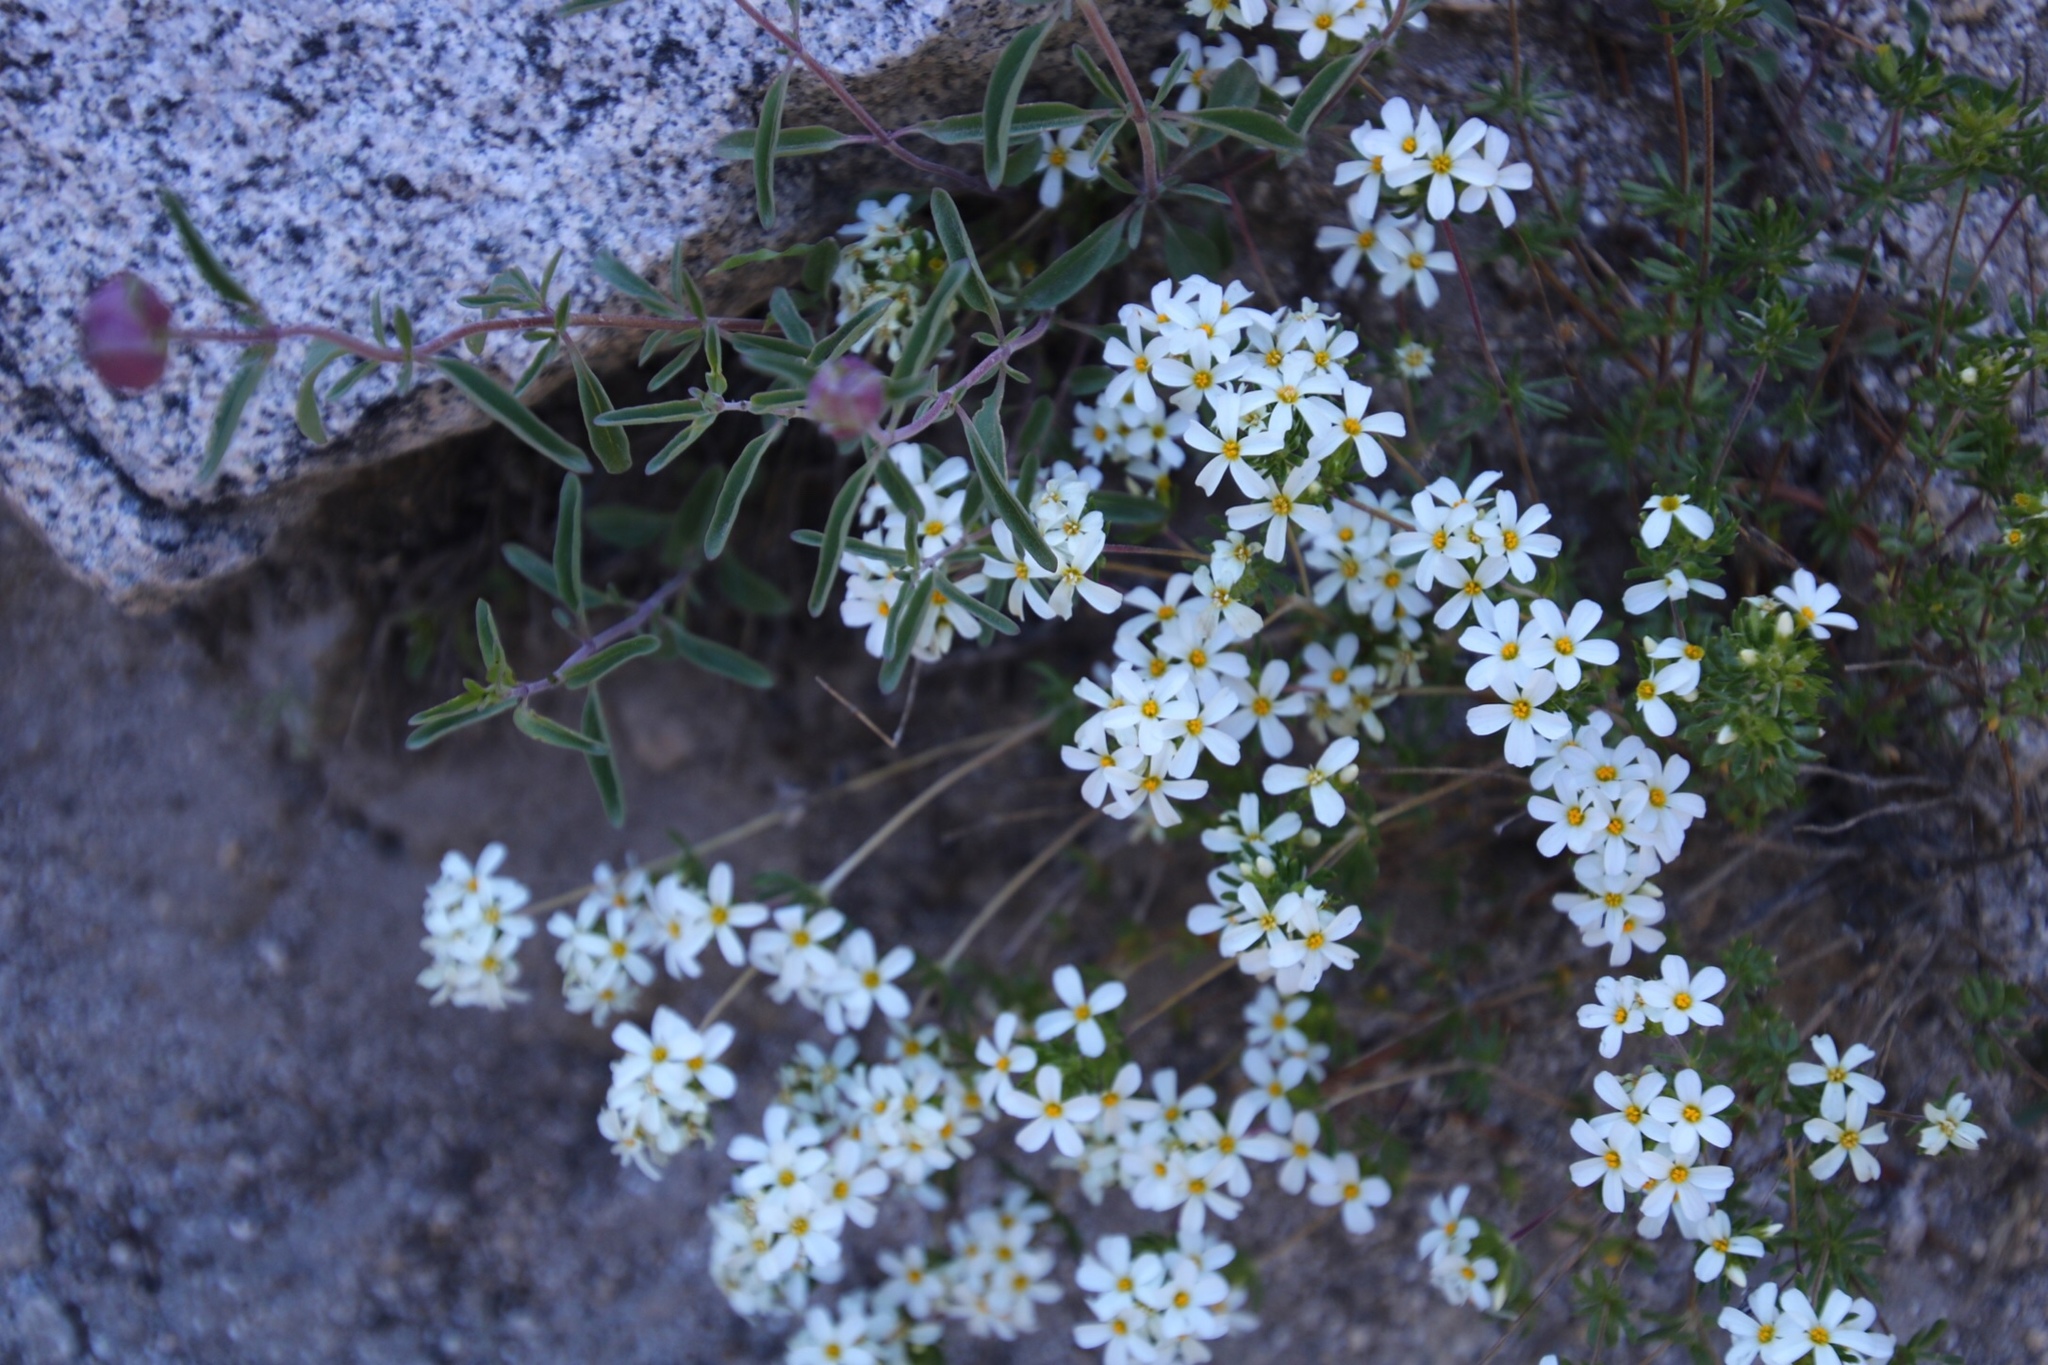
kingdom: Plantae
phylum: Tracheophyta
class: Magnoliopsida
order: Ericales
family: Polemoniaceae
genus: Leptosiphon
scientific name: Leptosiphon nuttallii
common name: Nuttall's linanthus
